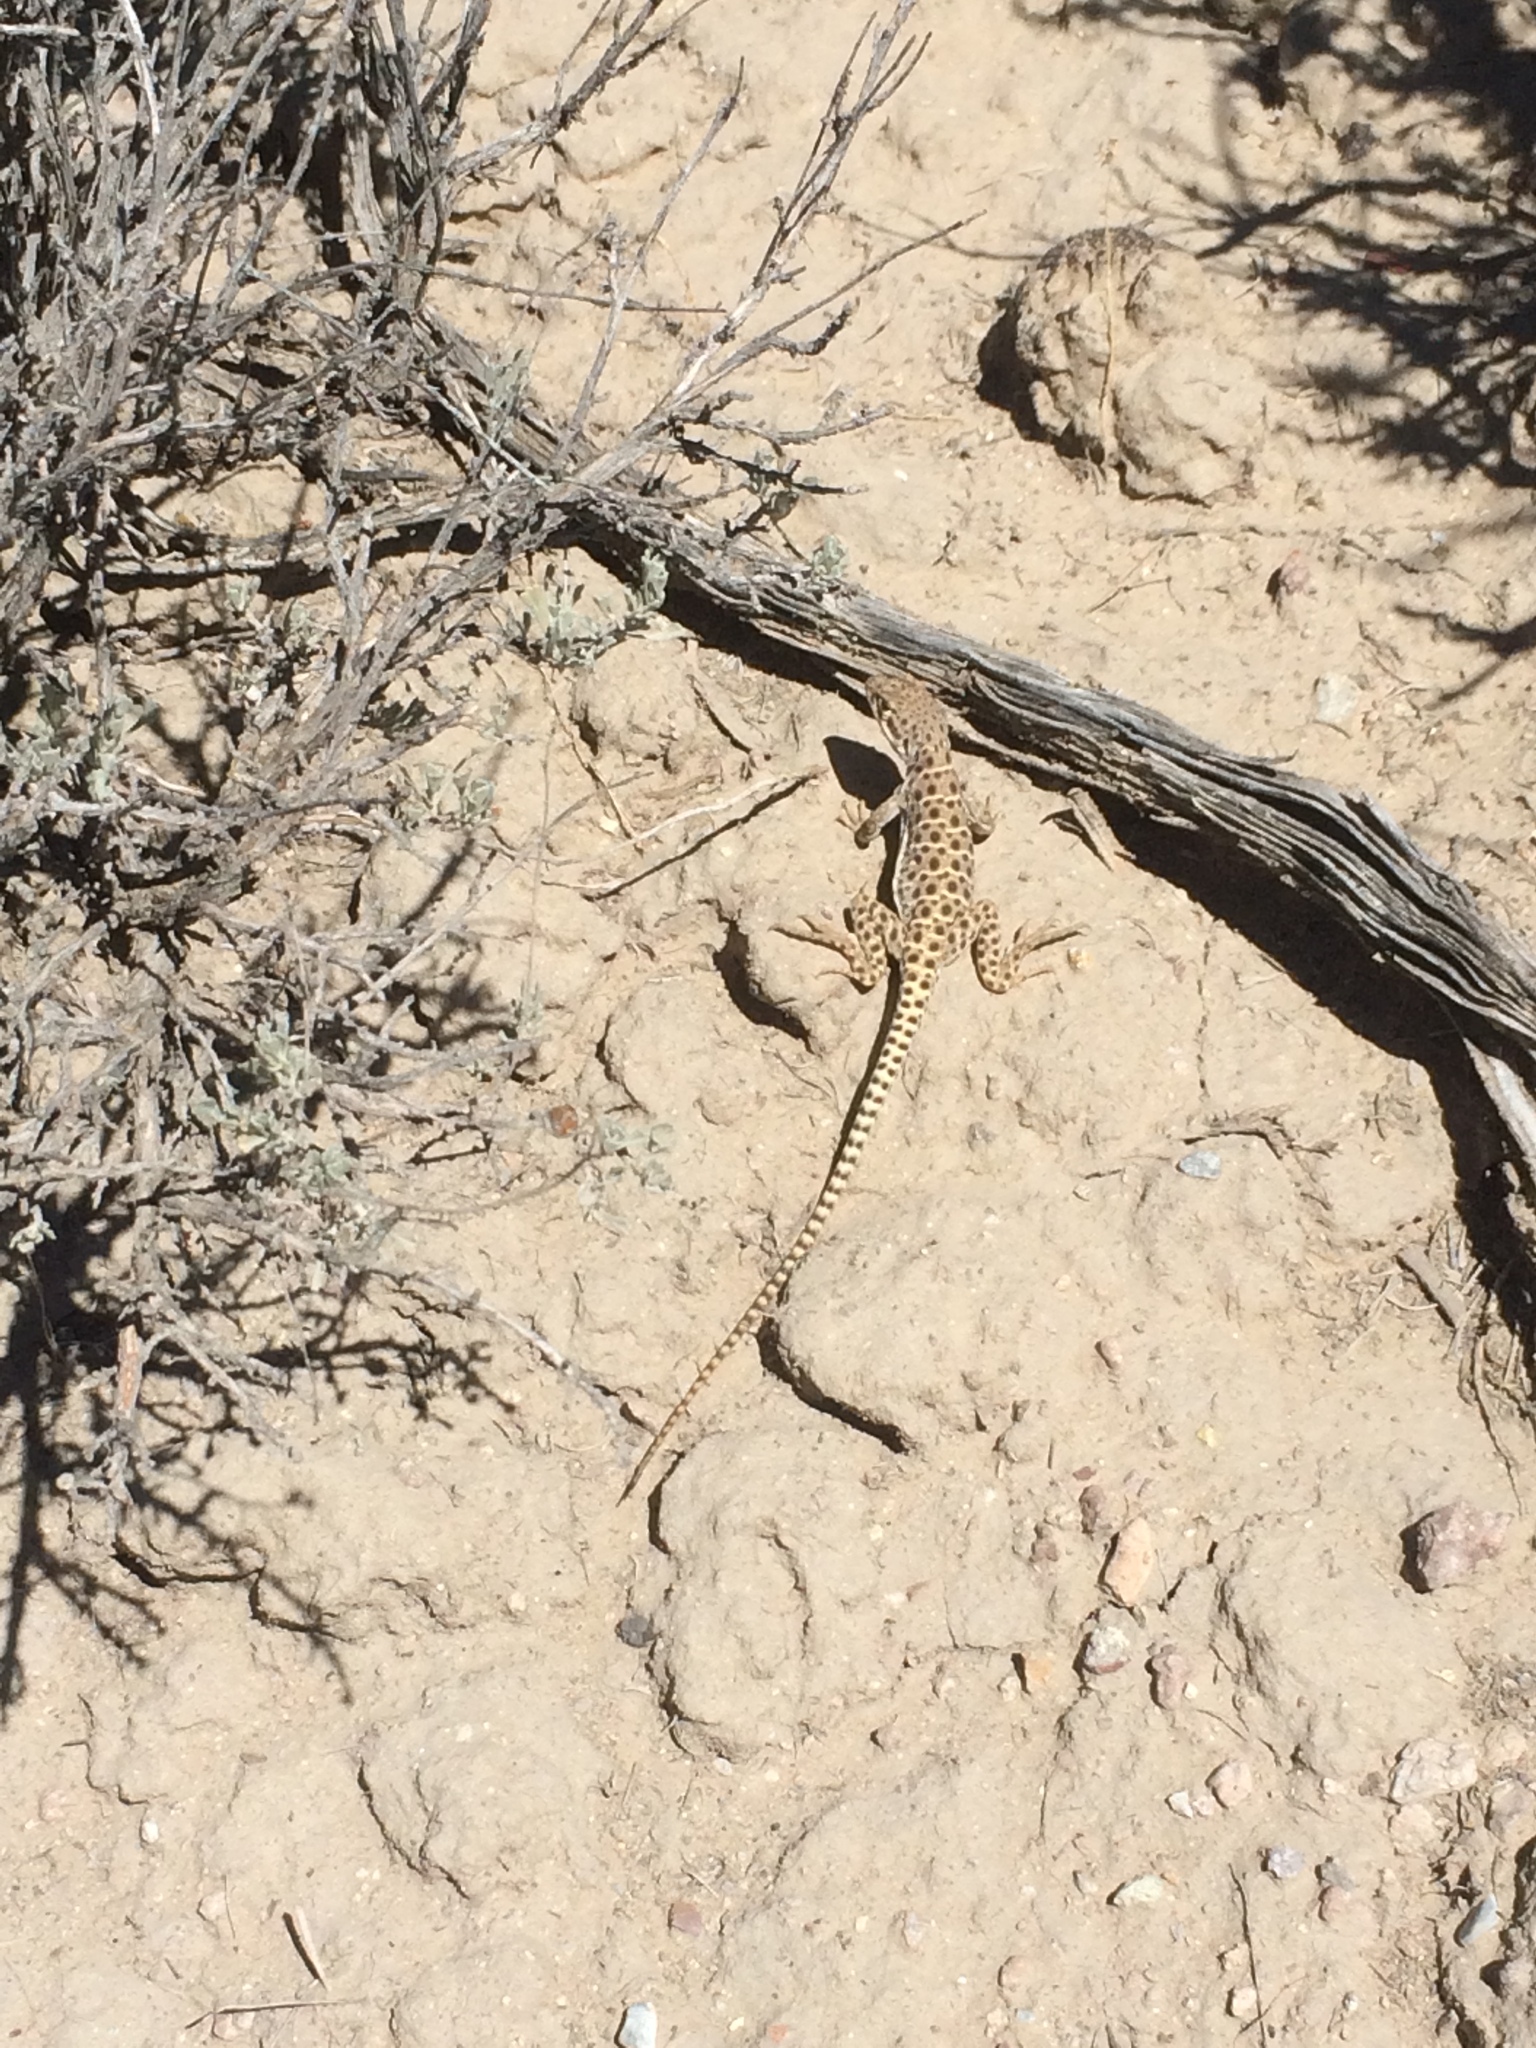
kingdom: Animalia
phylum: Chordata
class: Squamata
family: Crotaphytidae
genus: Gambelia
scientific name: Gambelia wislizenii
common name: Longnose leopard lizard
